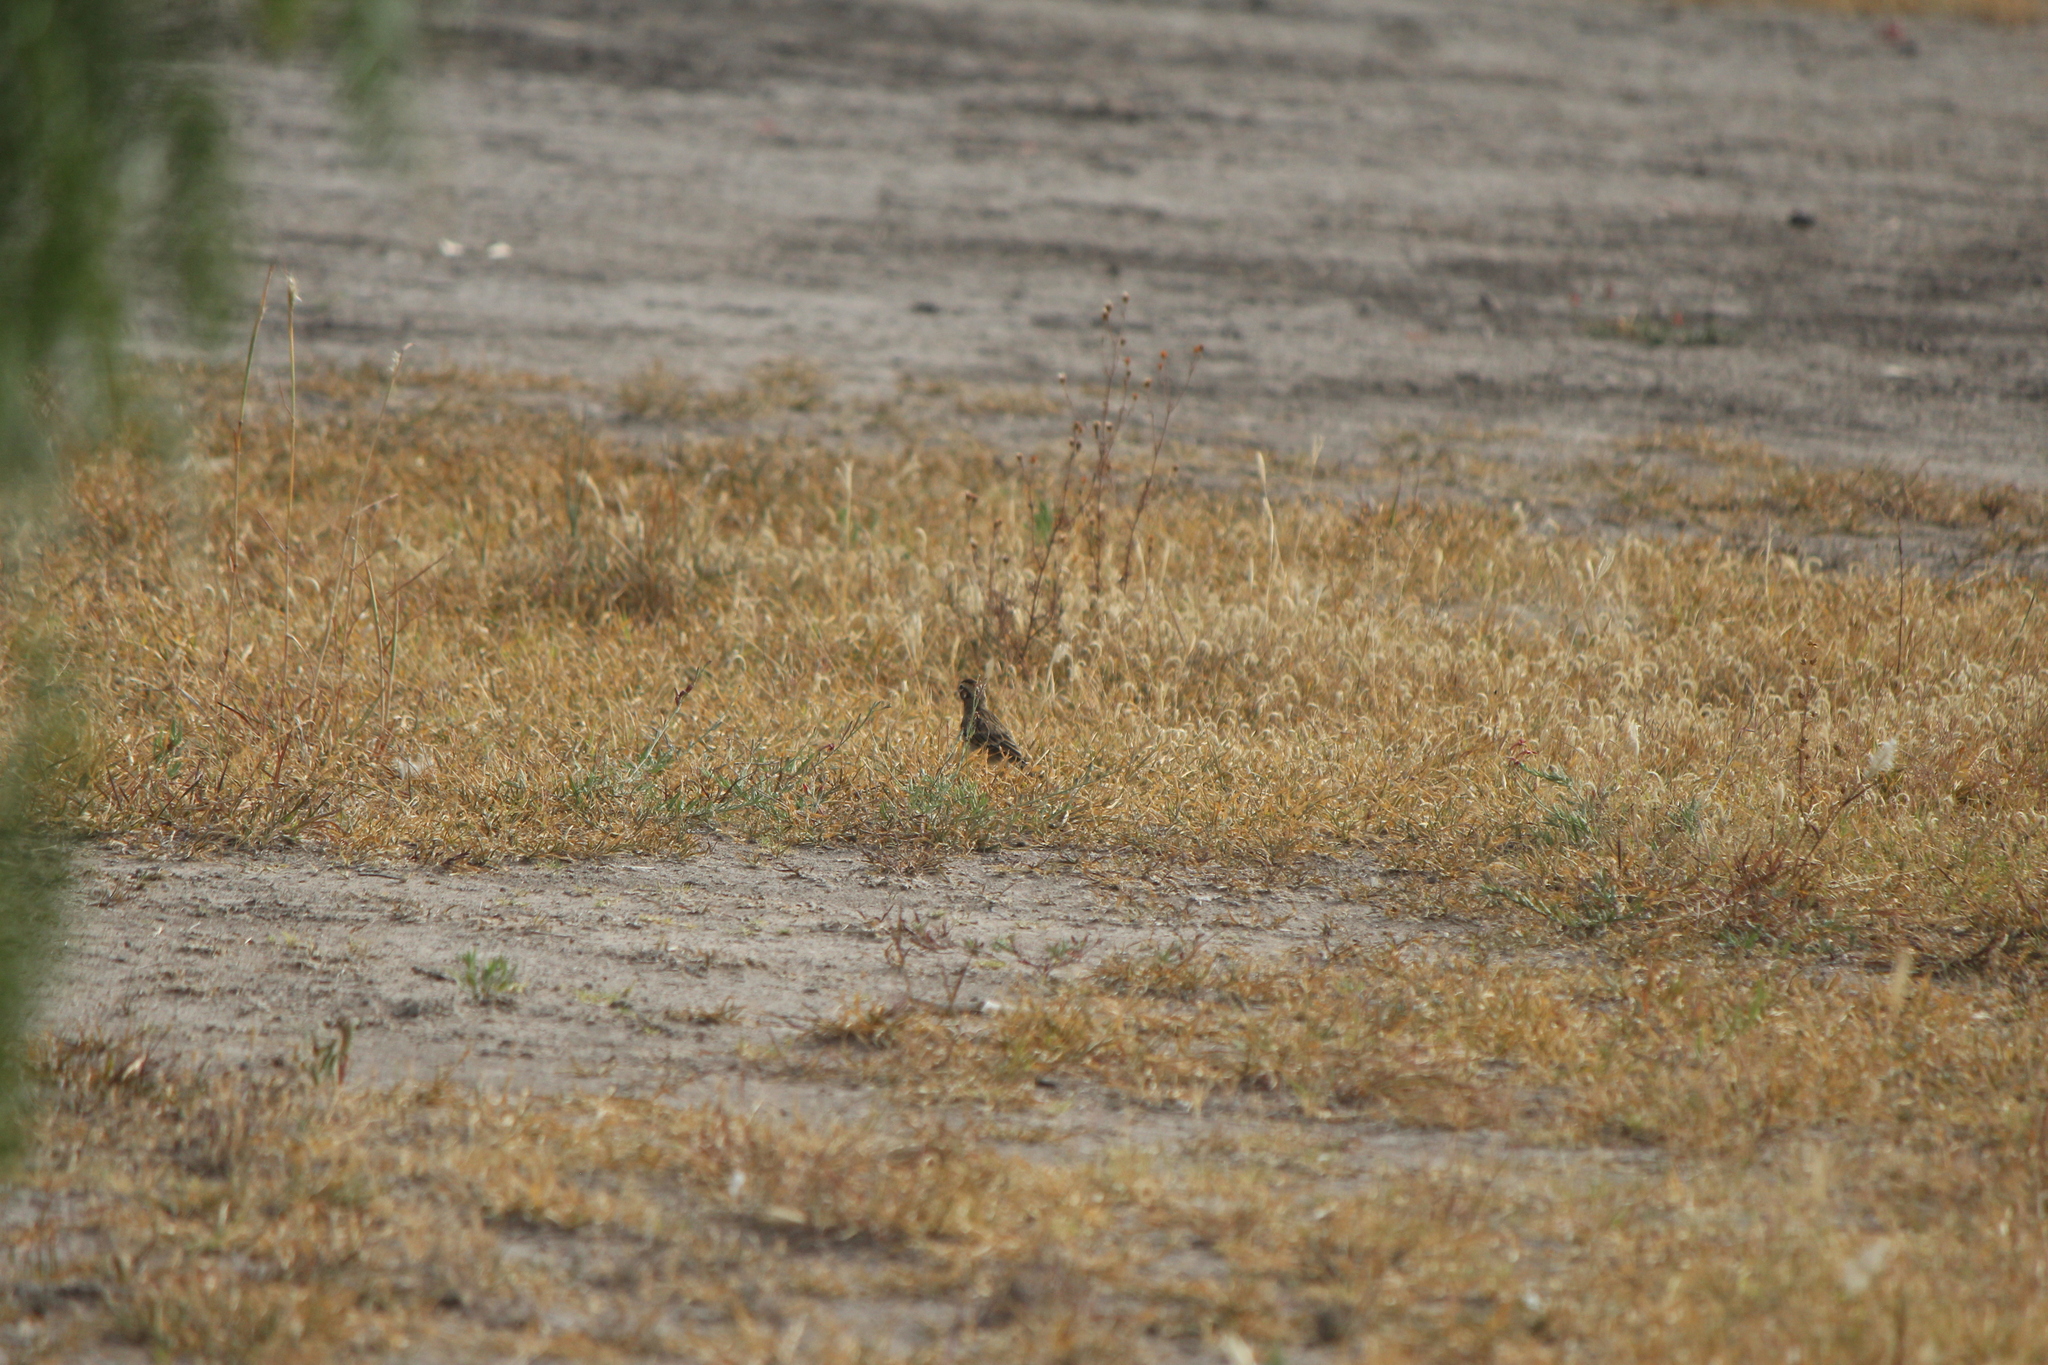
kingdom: Animalia
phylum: Chordata
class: Aves
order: Passeriformes
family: Passerellidae
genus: Chondestes
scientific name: Chondestes grammacus
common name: Lark sparrow
